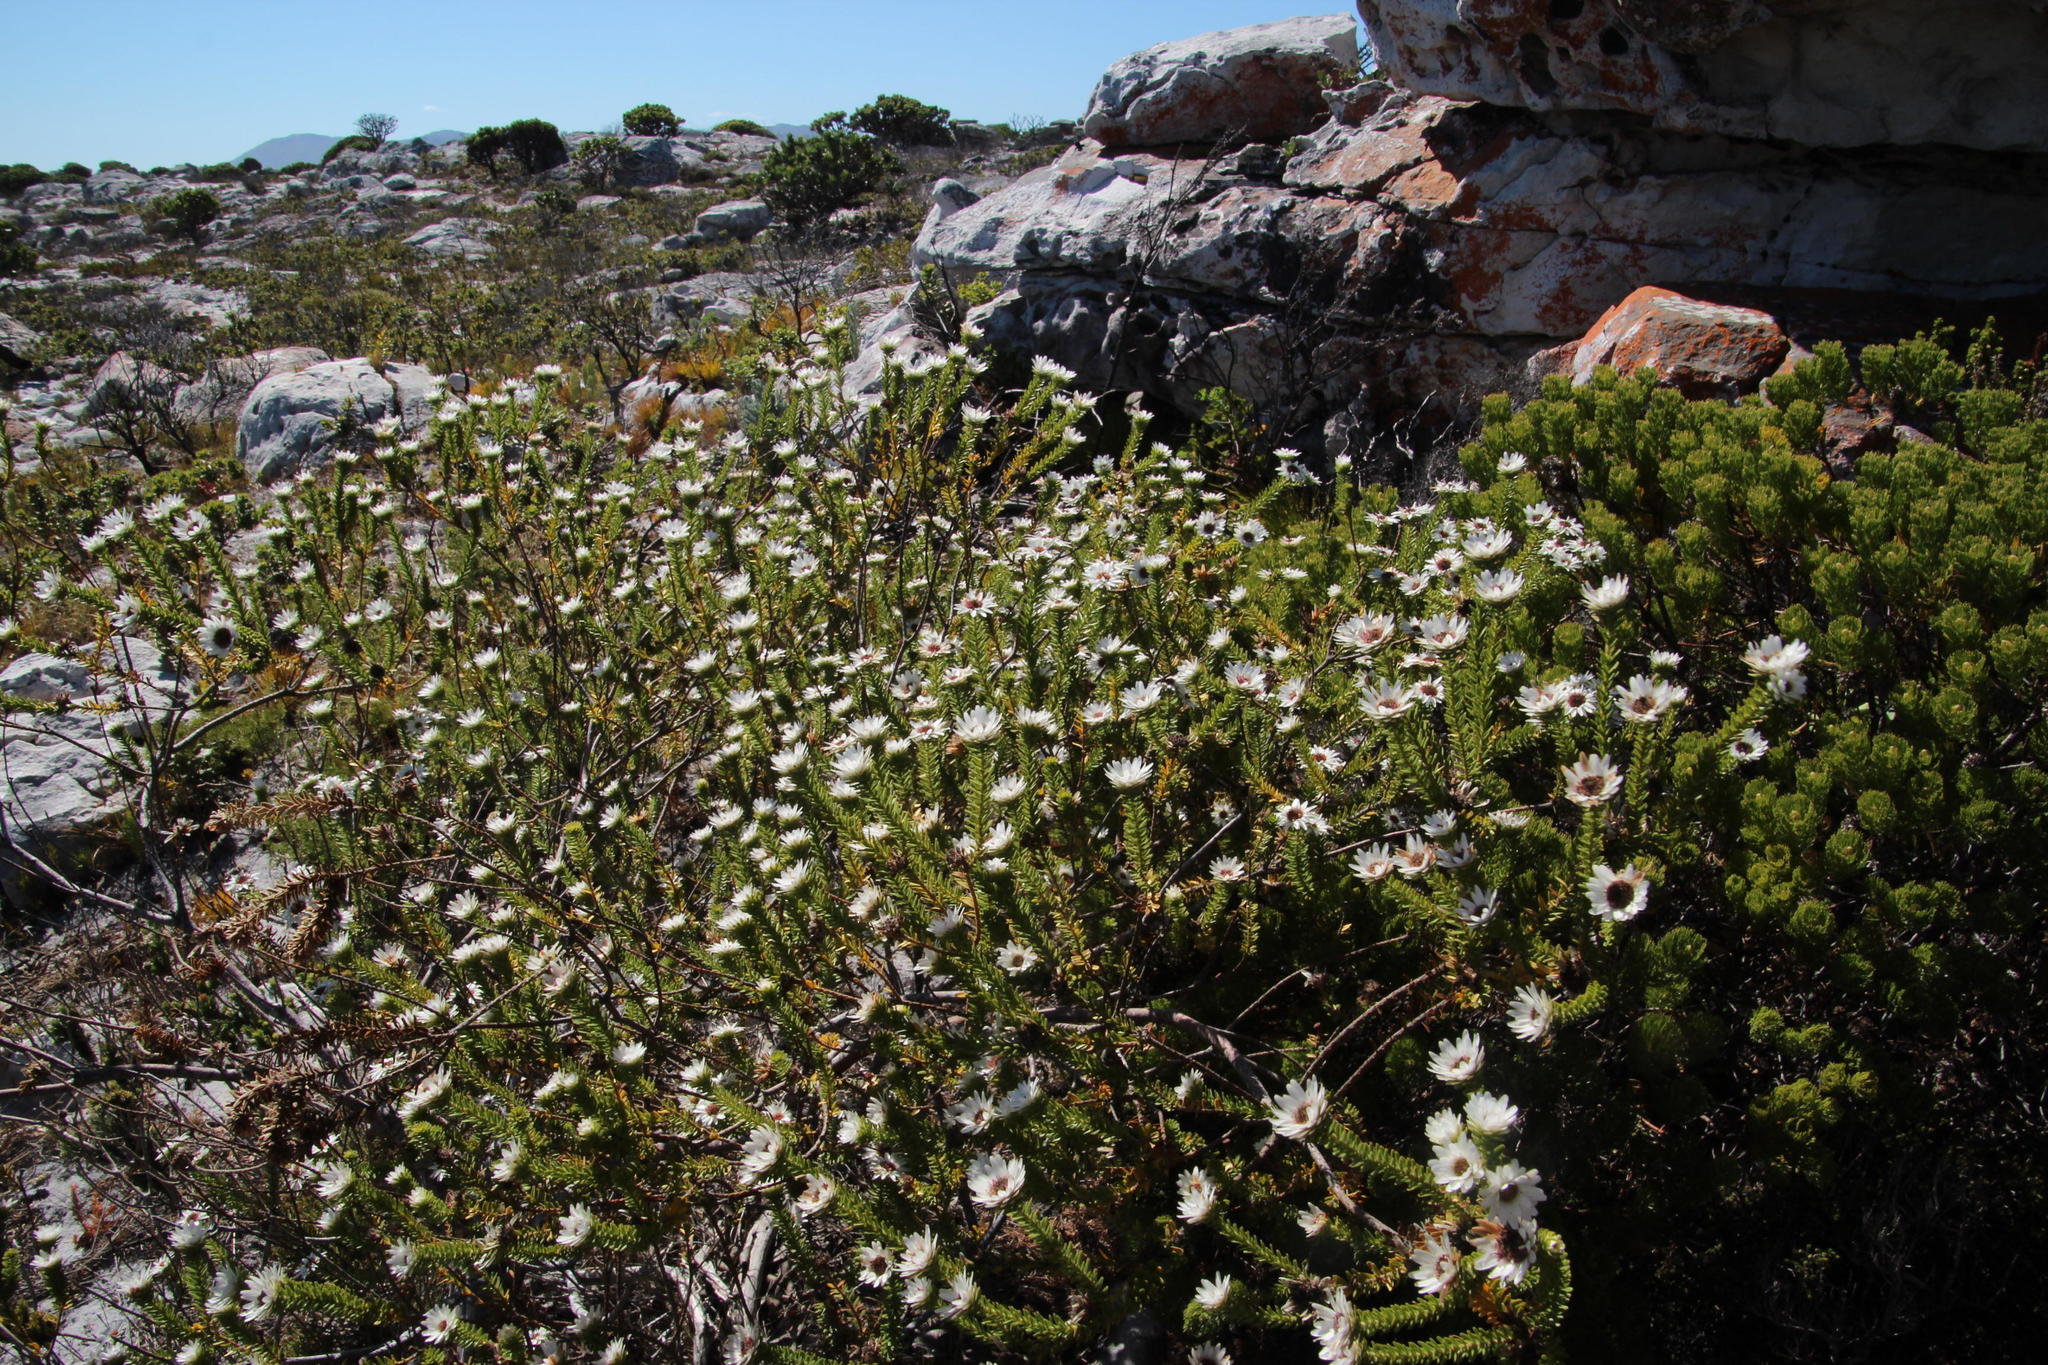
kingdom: Plantae
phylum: Tracheophyta
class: Magnoliopsida
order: Bruniales
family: Bruniaceae
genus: Staavia
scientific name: Staavia dodii
